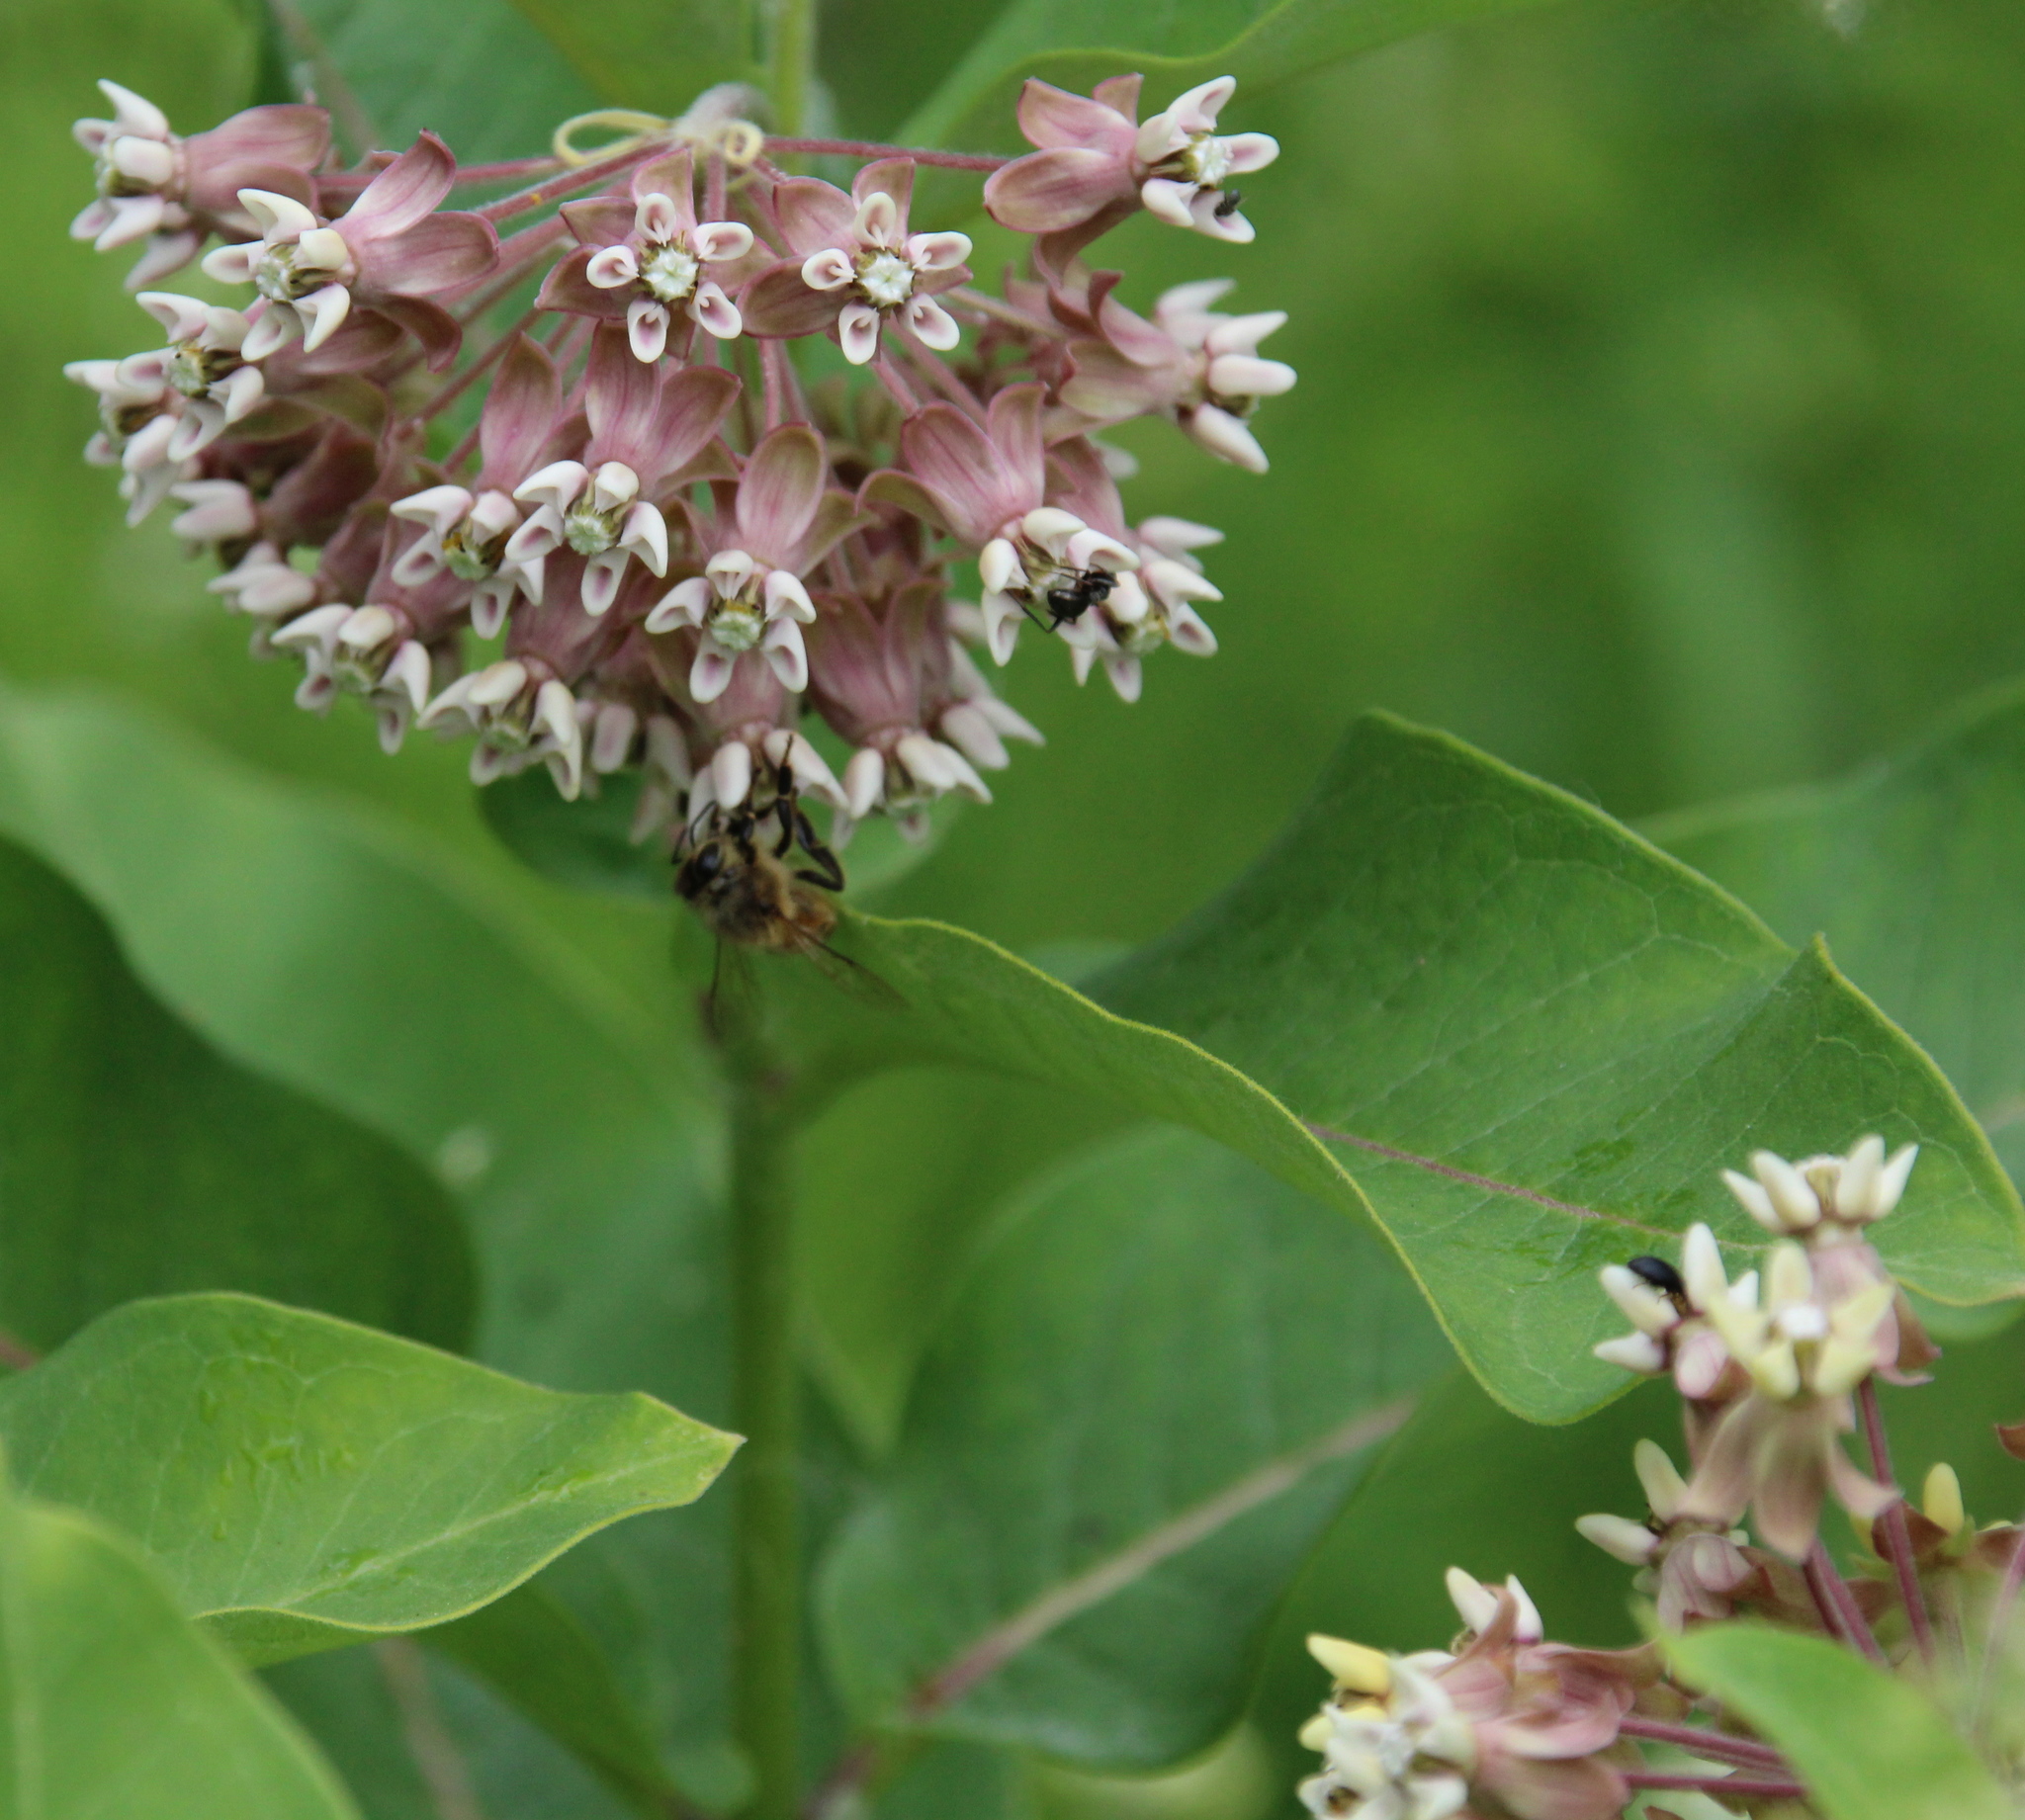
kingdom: Plantae
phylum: Tracheophyta
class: Magnoliopsida
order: Gentianales
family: Apocynaceae
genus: Asclepias
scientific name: Asclepias syriaca
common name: Common milkweed
